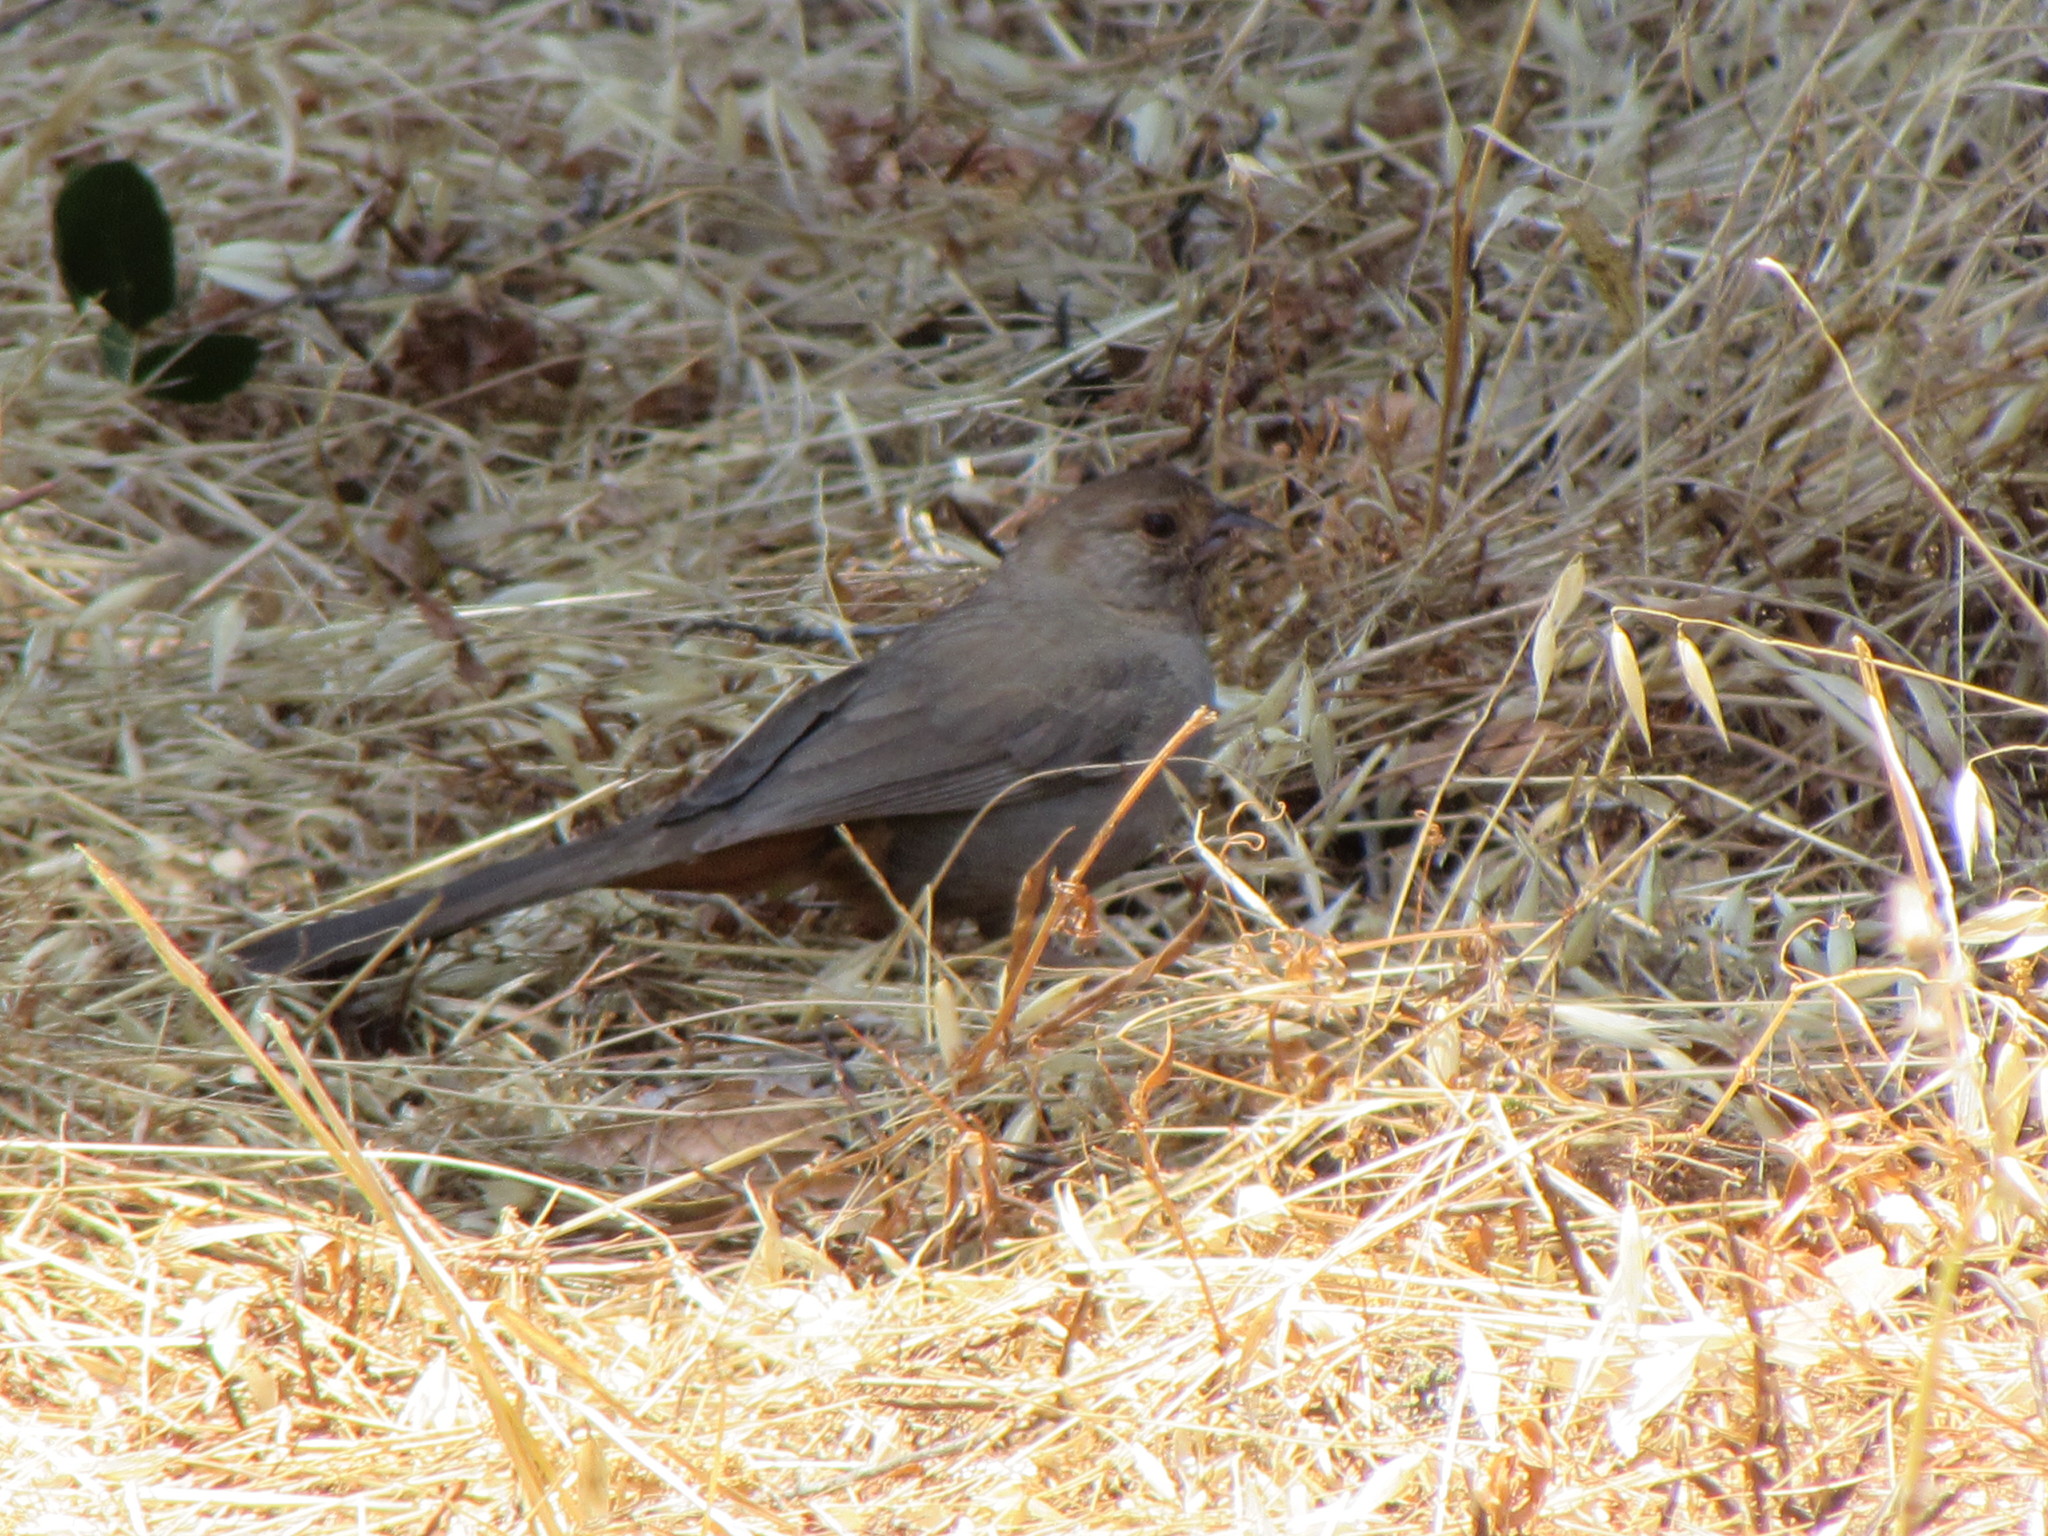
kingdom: Animalia
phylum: Chordata
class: Aves
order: Passeriformes
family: Passerellidae
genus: Melozone
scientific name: Melozone crissalis
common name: California towhee
